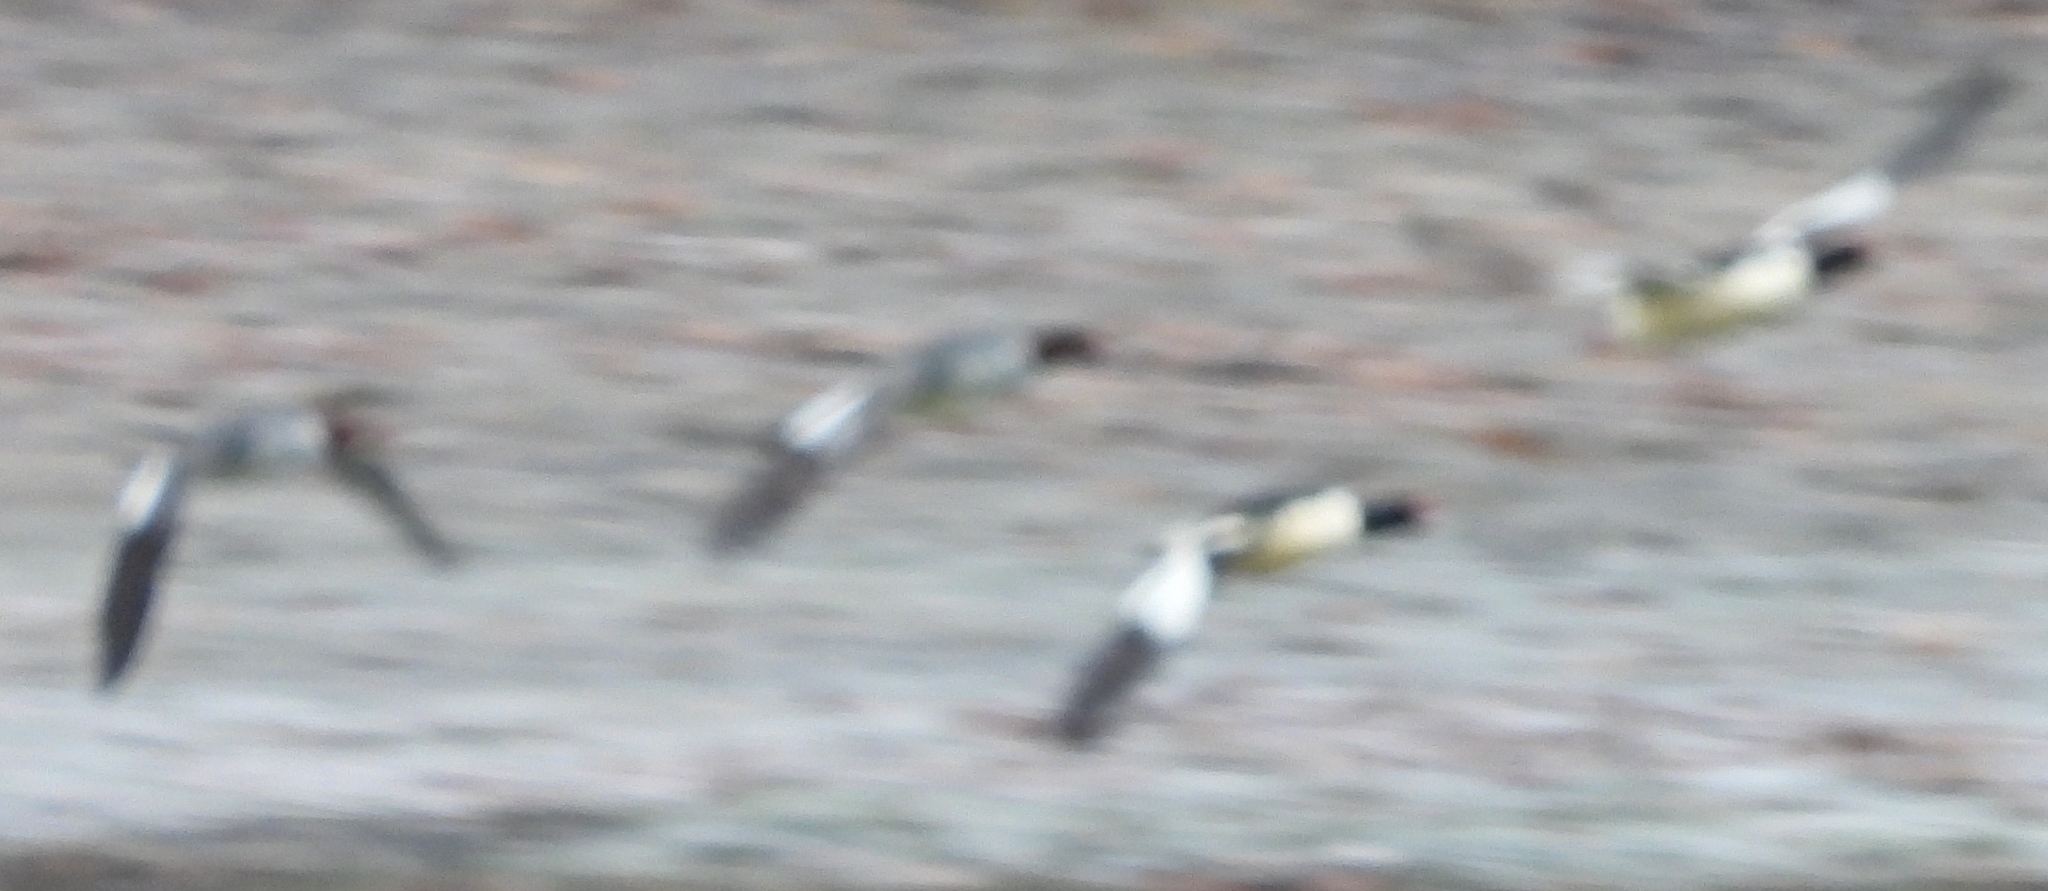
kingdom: Animalia
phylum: Chordata
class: Aves
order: Anseriformes
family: Anatidae
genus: Mergus
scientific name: Mergus merganser
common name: Common merganser
